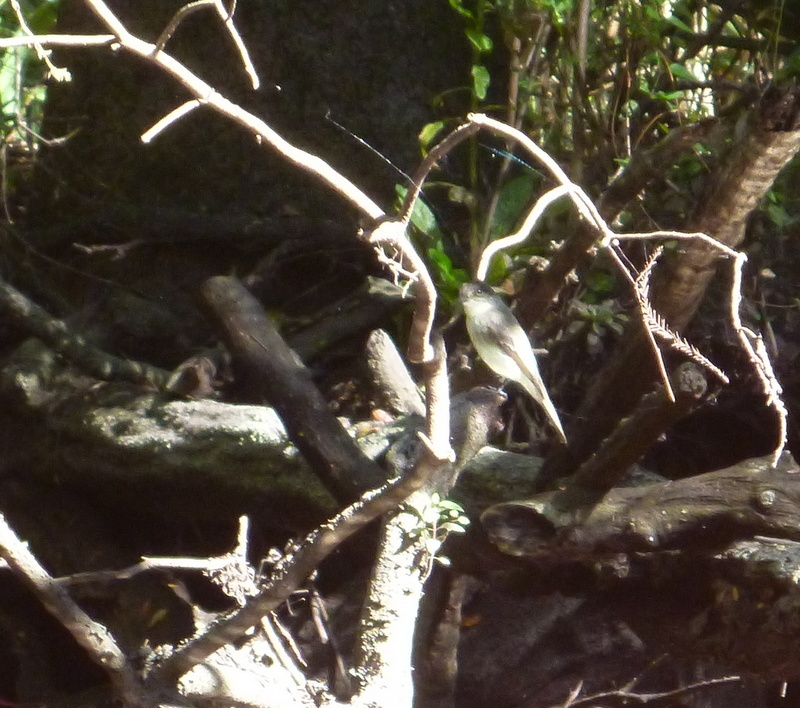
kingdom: Animalia
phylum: Chordata
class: Aves
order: Passeriformes
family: Tyrannidae
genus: Sayornis
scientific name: Sayornis phoebe
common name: Eastern phoebe
